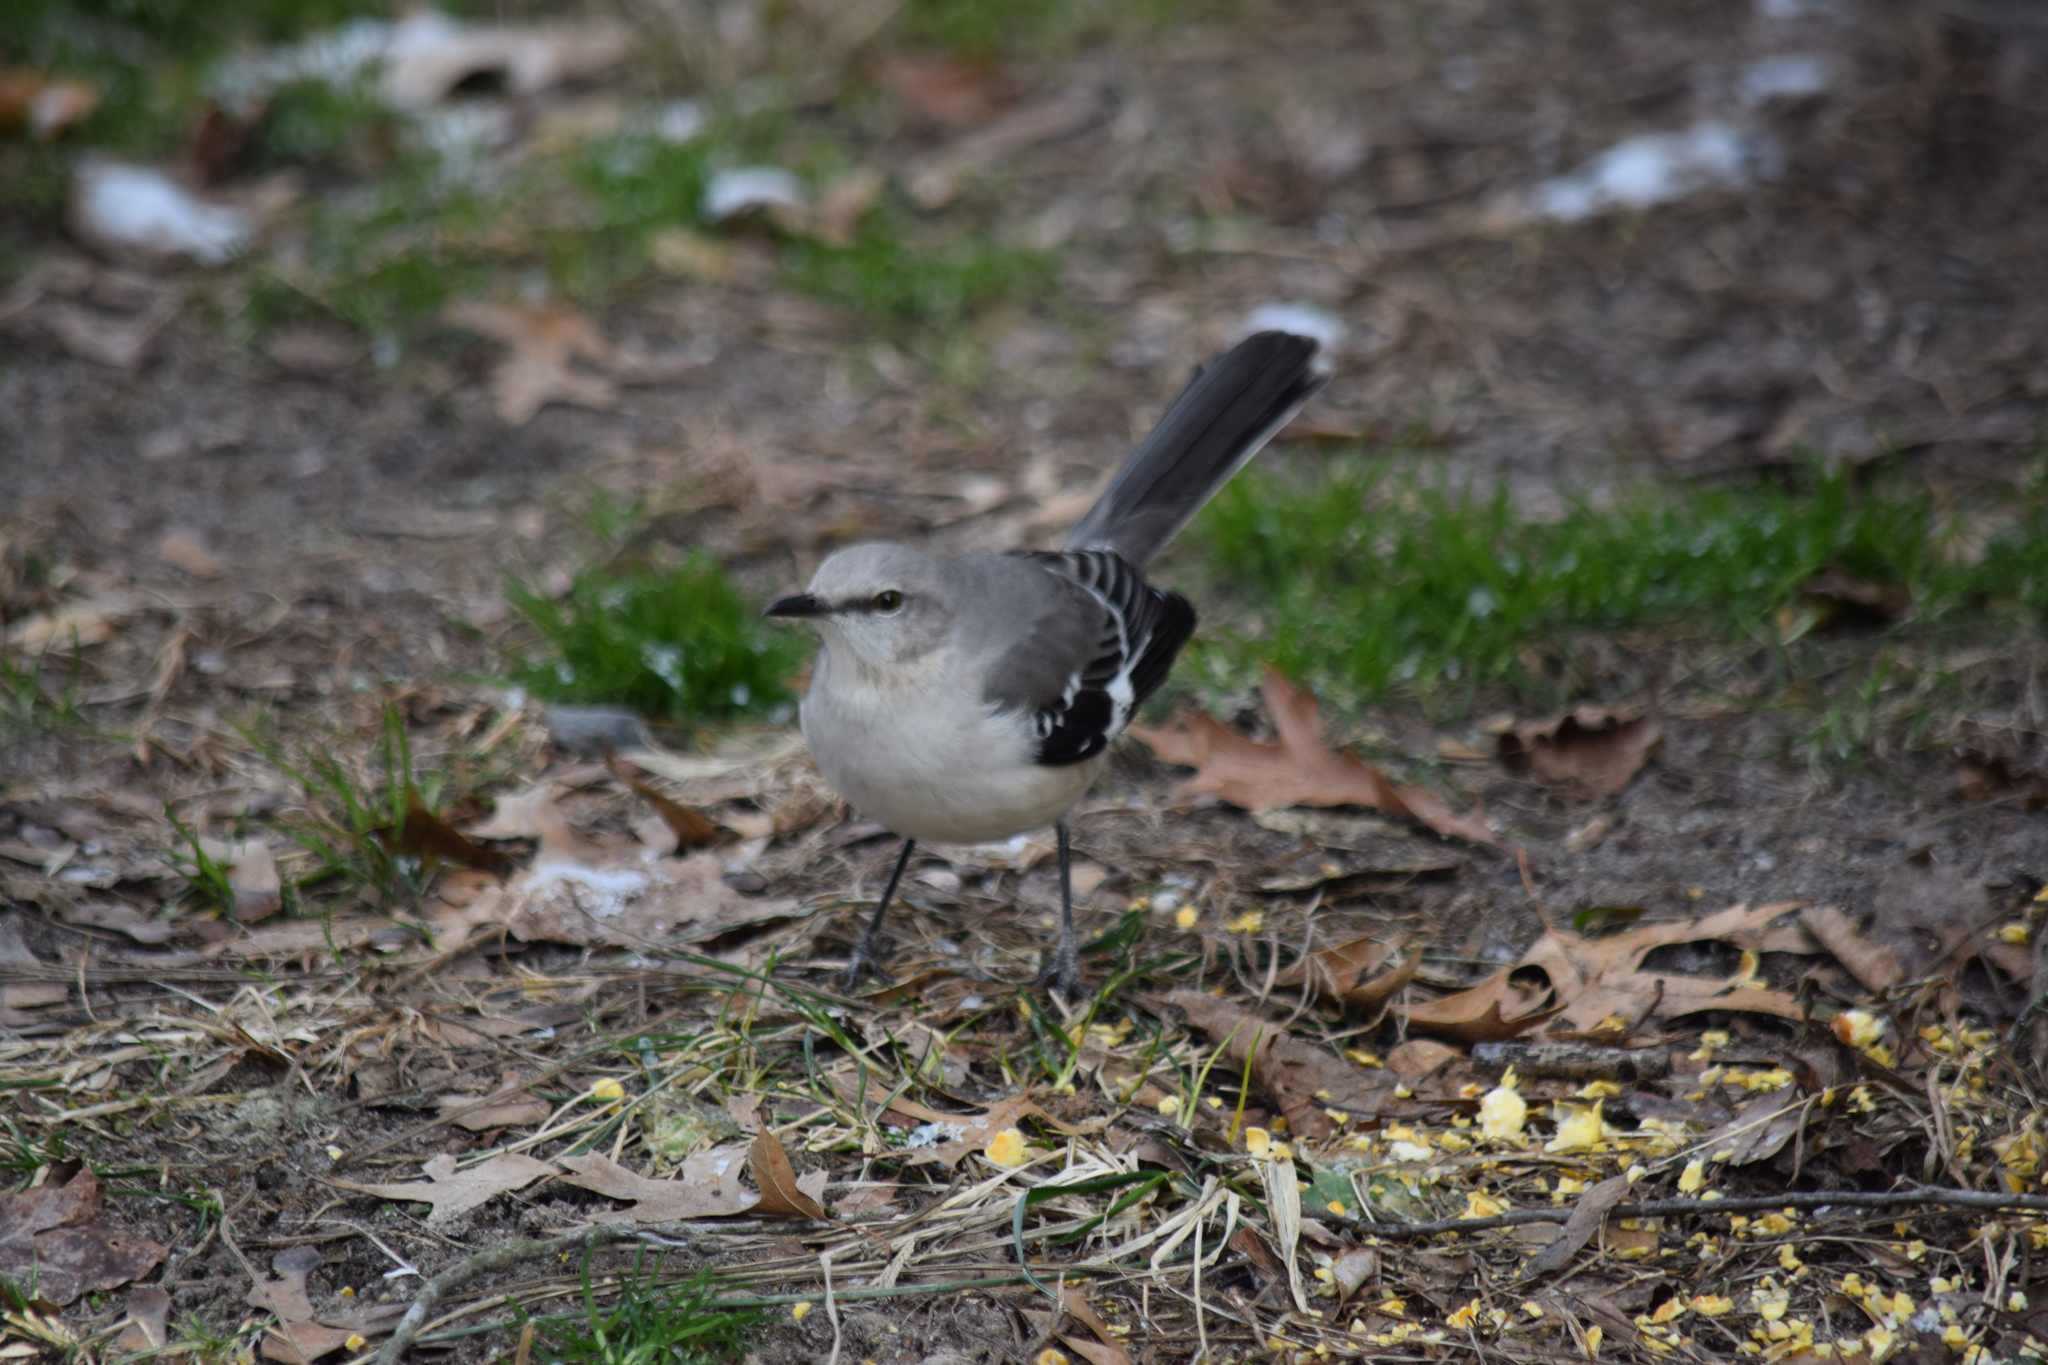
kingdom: Animalia
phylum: Chordata
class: Aves
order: Passeriformes
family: Mimidae
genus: Mimus
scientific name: Mimus polyglottos
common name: Northern mockingbird
